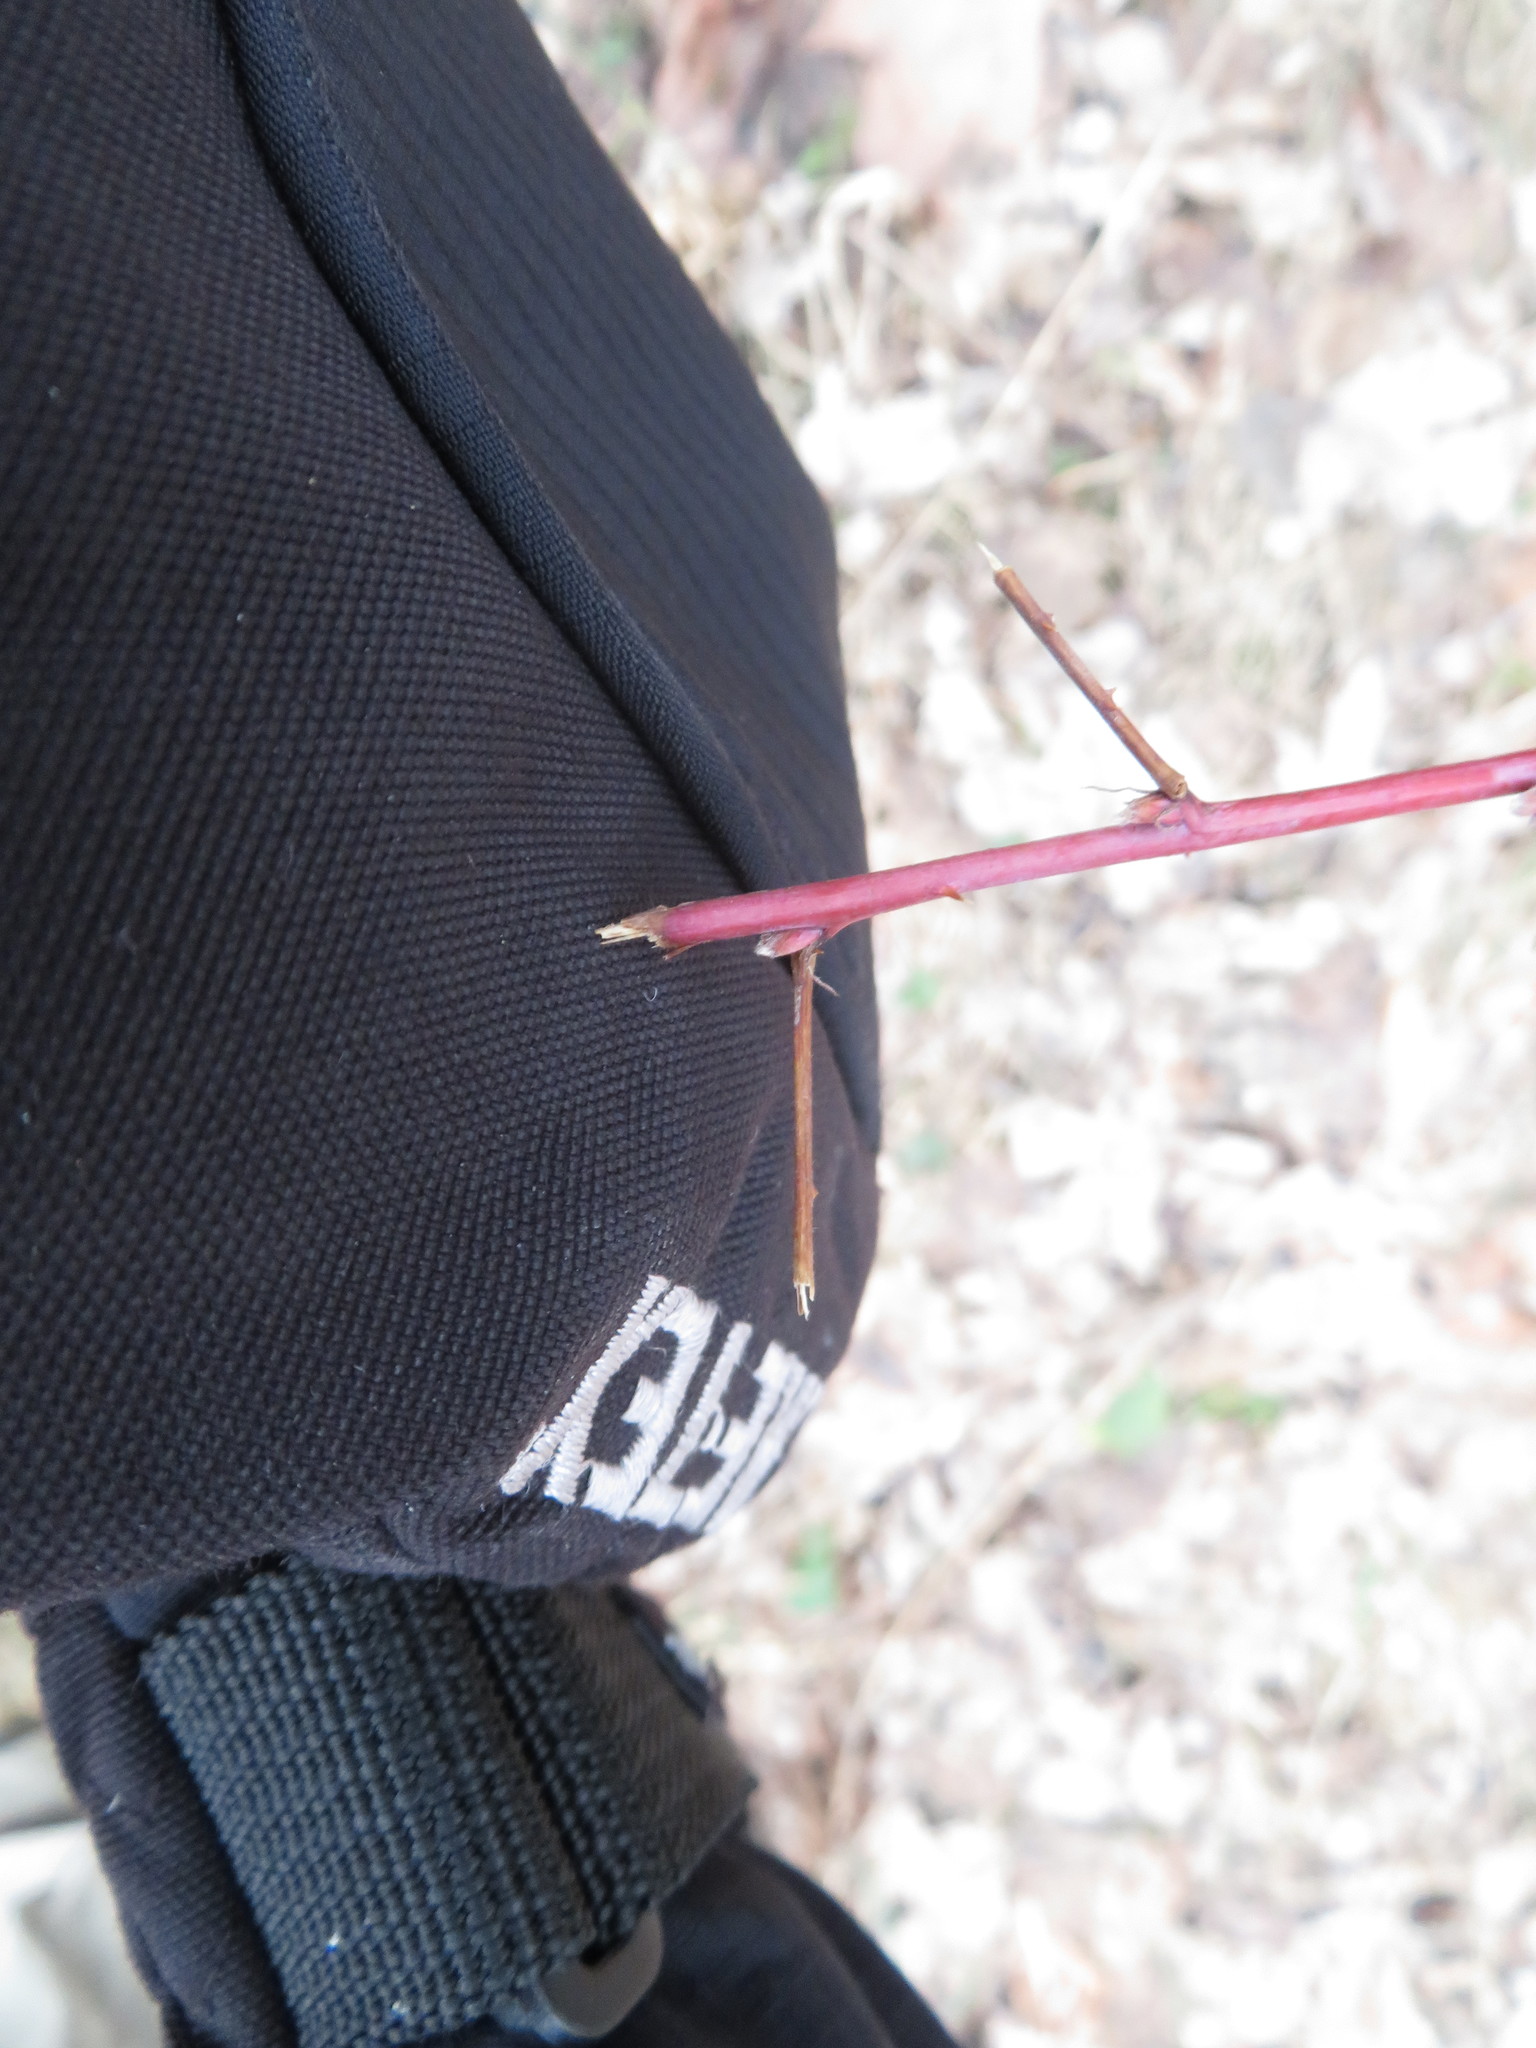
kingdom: Plantae
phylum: Tracheophyta
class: Magnoliopsida
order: Rosales
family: Rosaceae
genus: Rubus
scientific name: Rubus occidentalis
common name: Black raspberry
